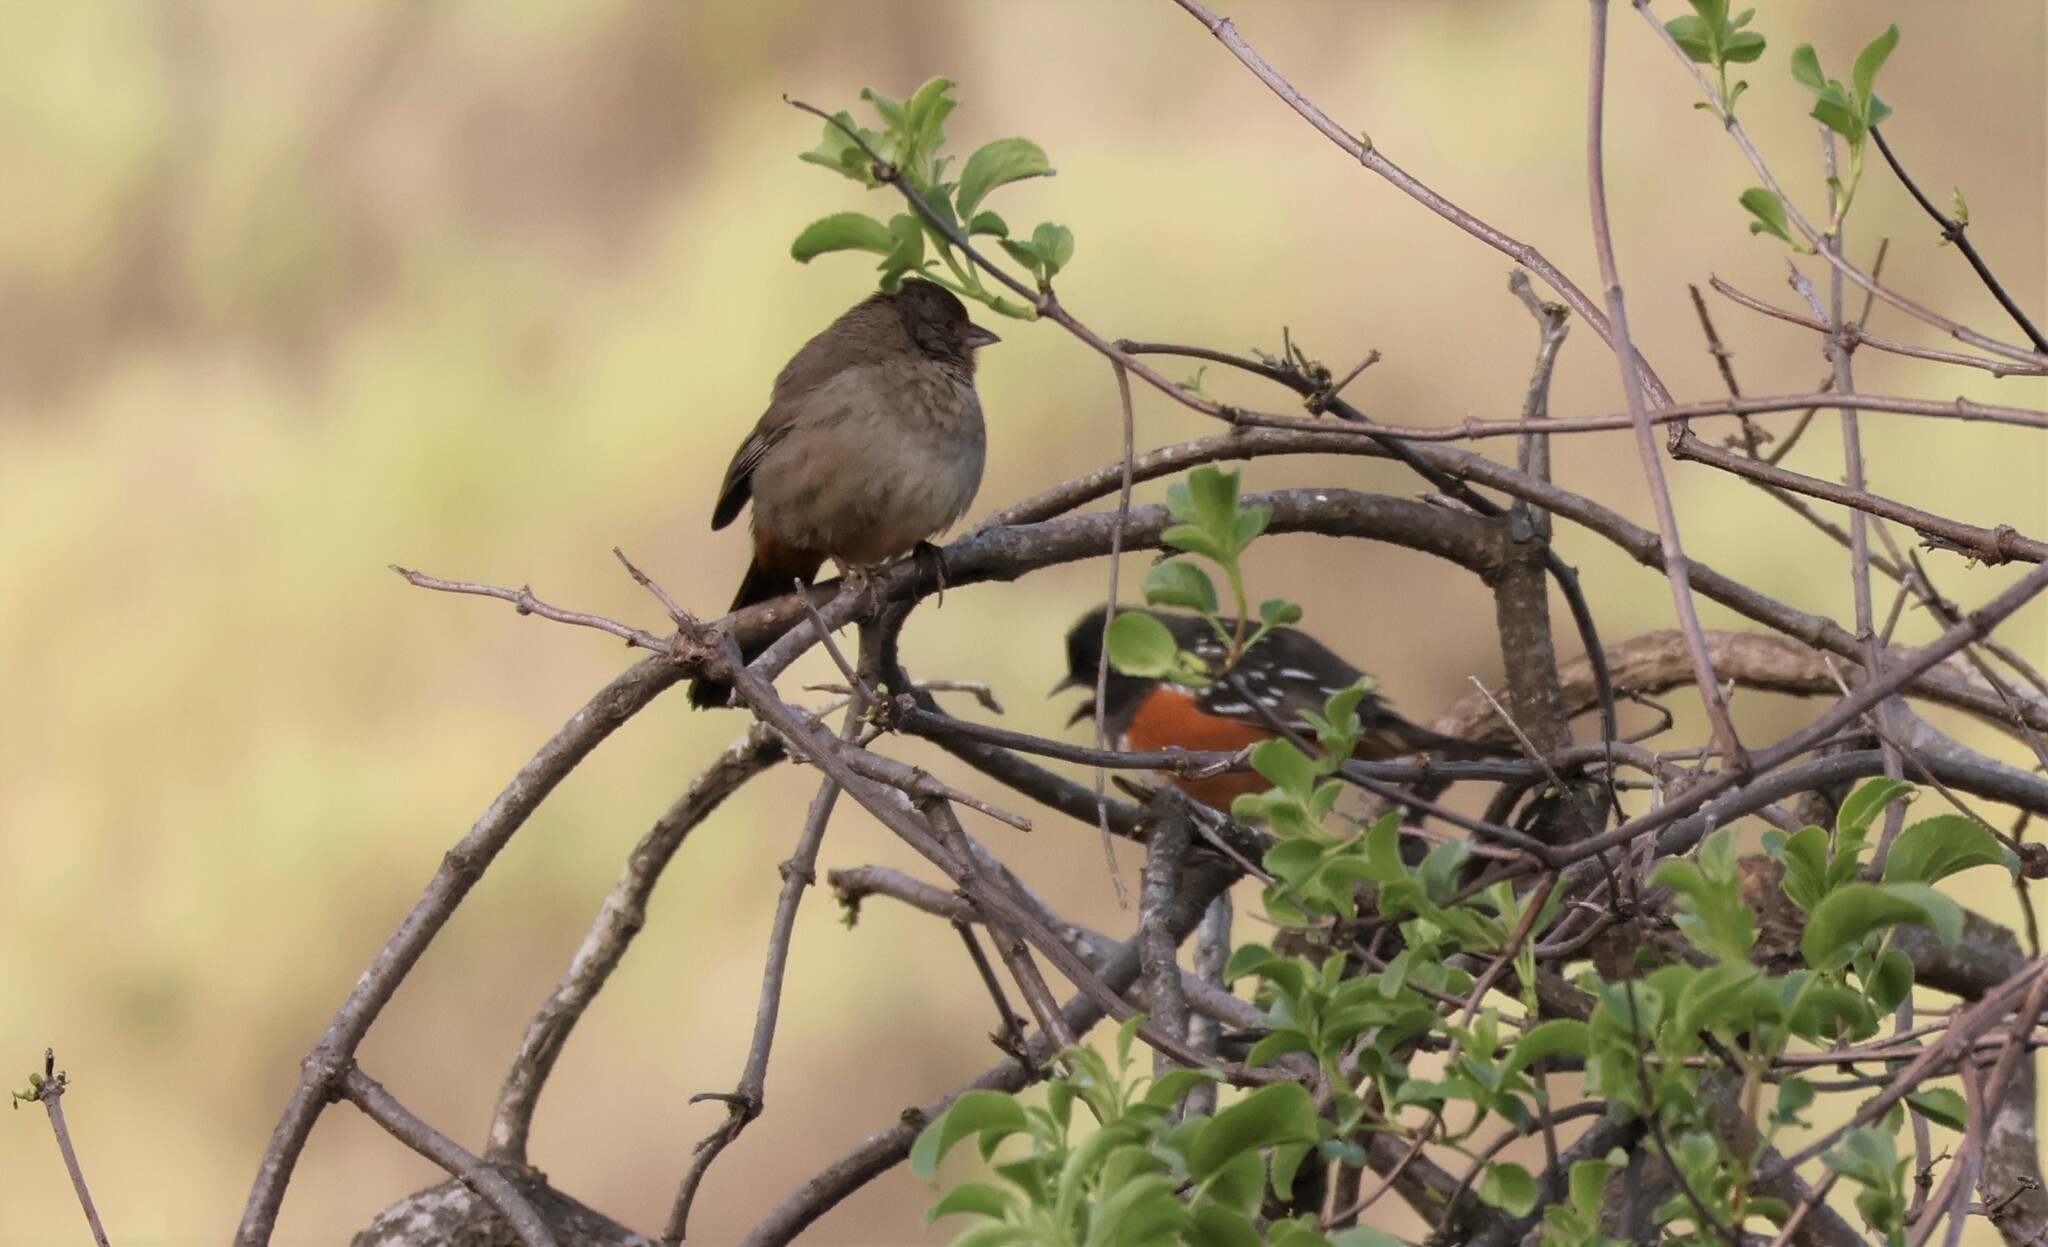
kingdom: Animalia
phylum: Chordata
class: Aves
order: Passeriformes
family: Passerellidae
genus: Melozone
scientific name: Melozone crissalis
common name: California towhee
